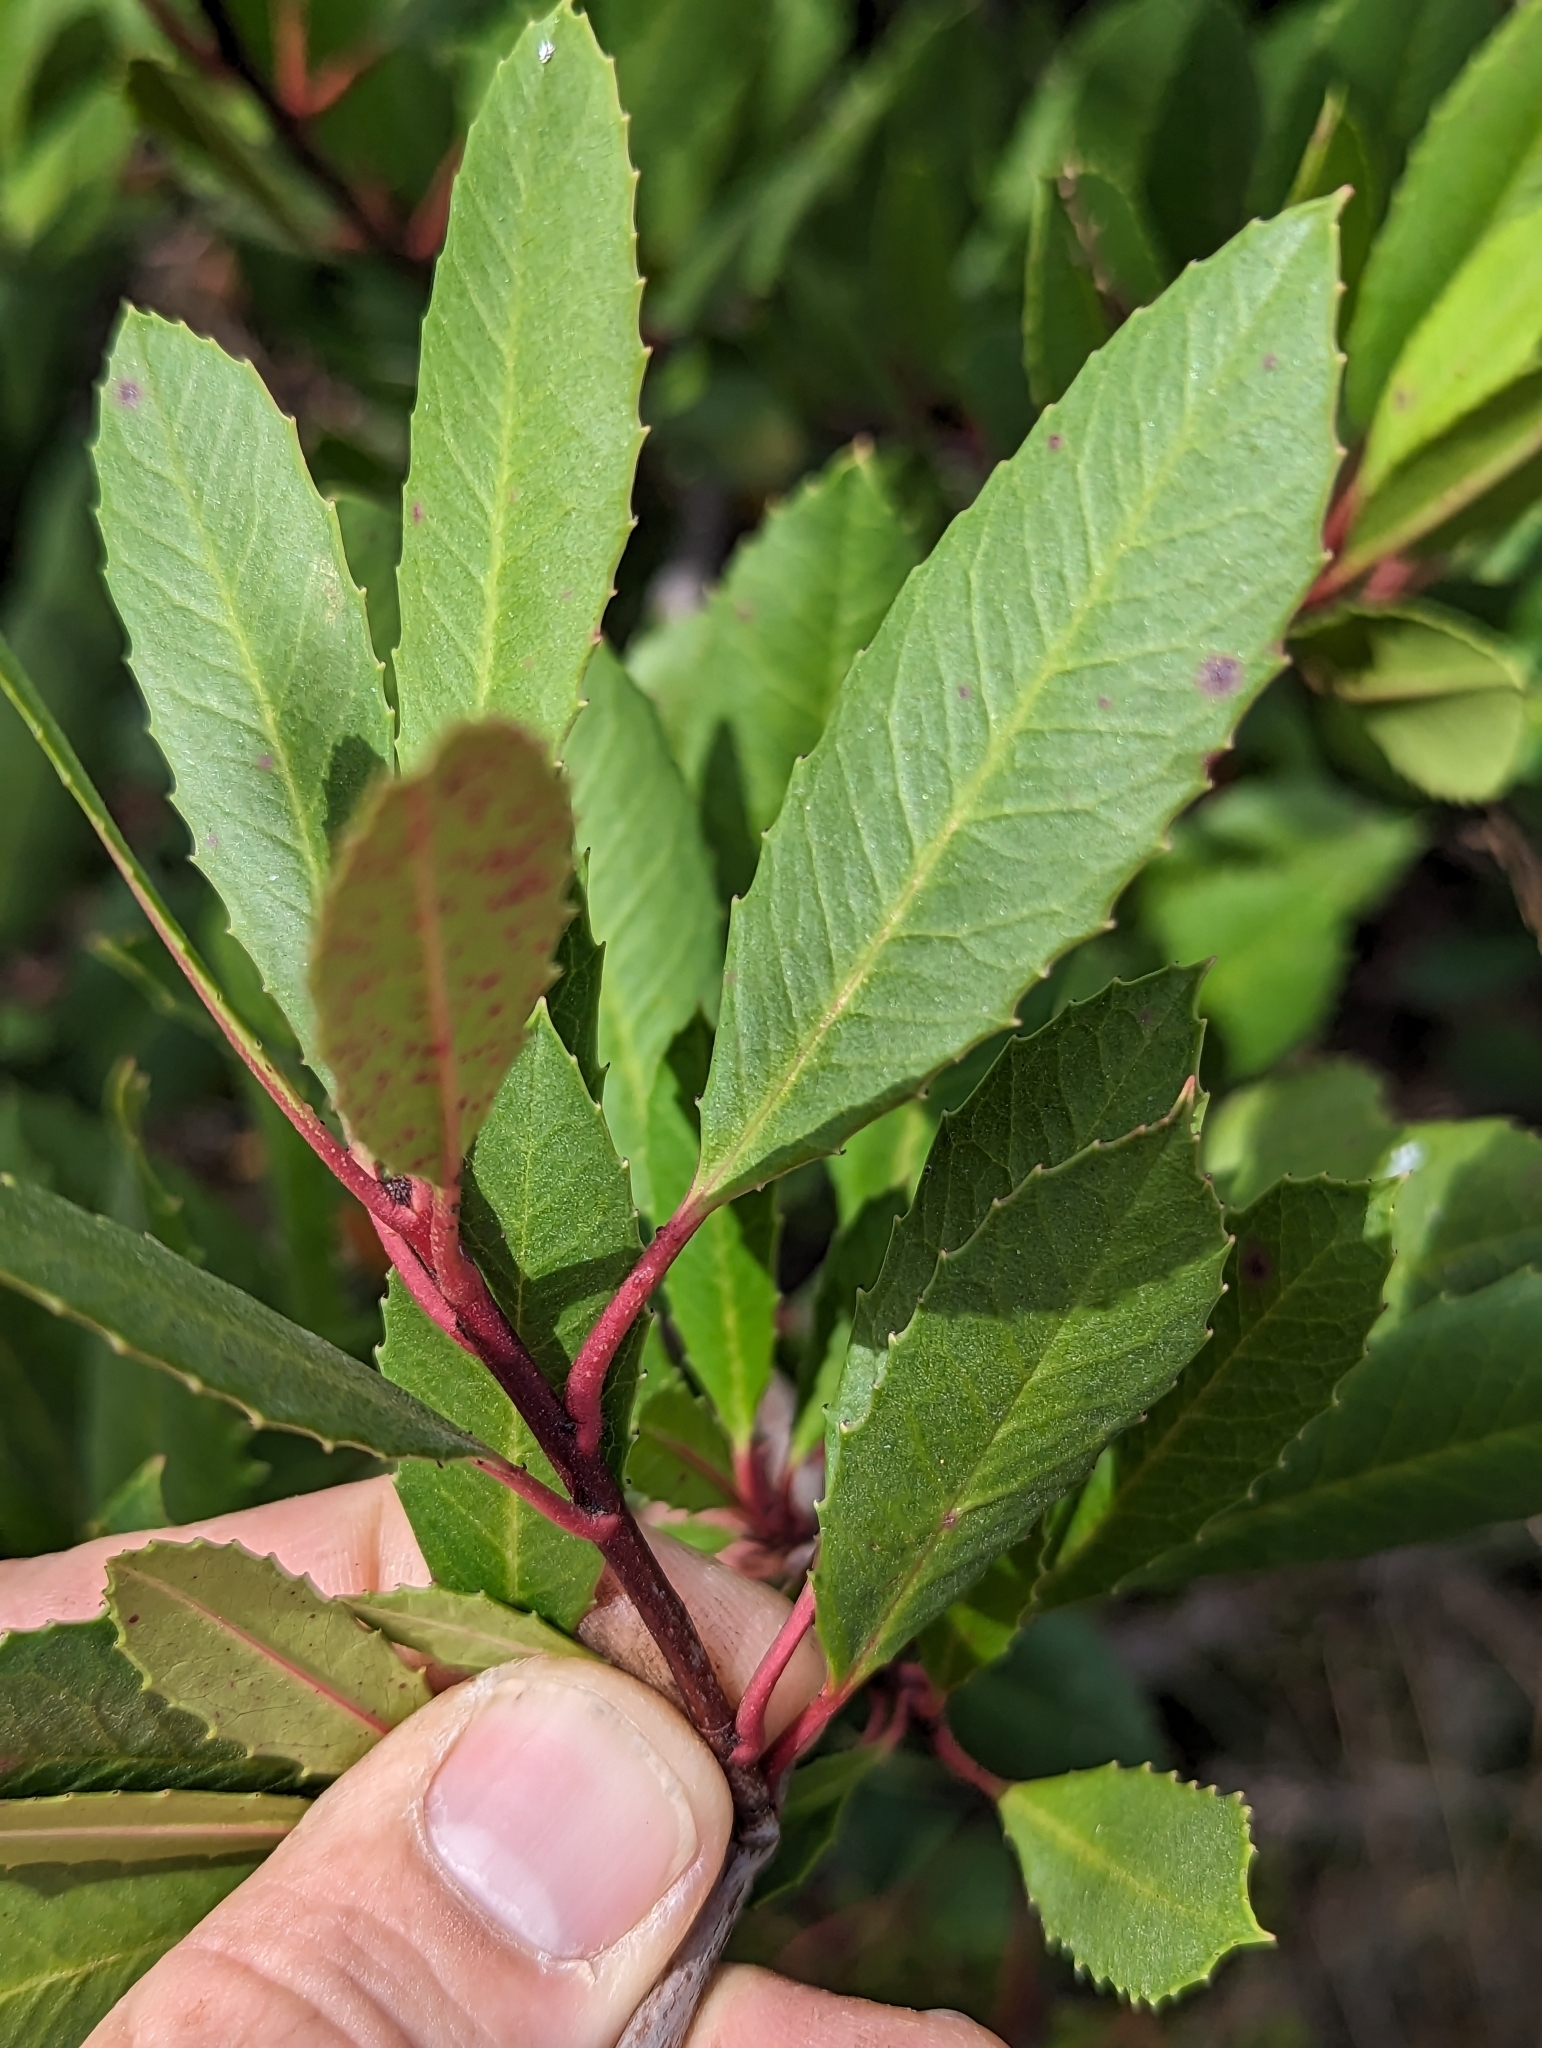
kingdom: Plantae
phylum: Tracheophyta
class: Magnoliopsida
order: Rosales
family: Rosaceae
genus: Heteromeles
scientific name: Heteromeles arbutifolia
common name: California-holly
